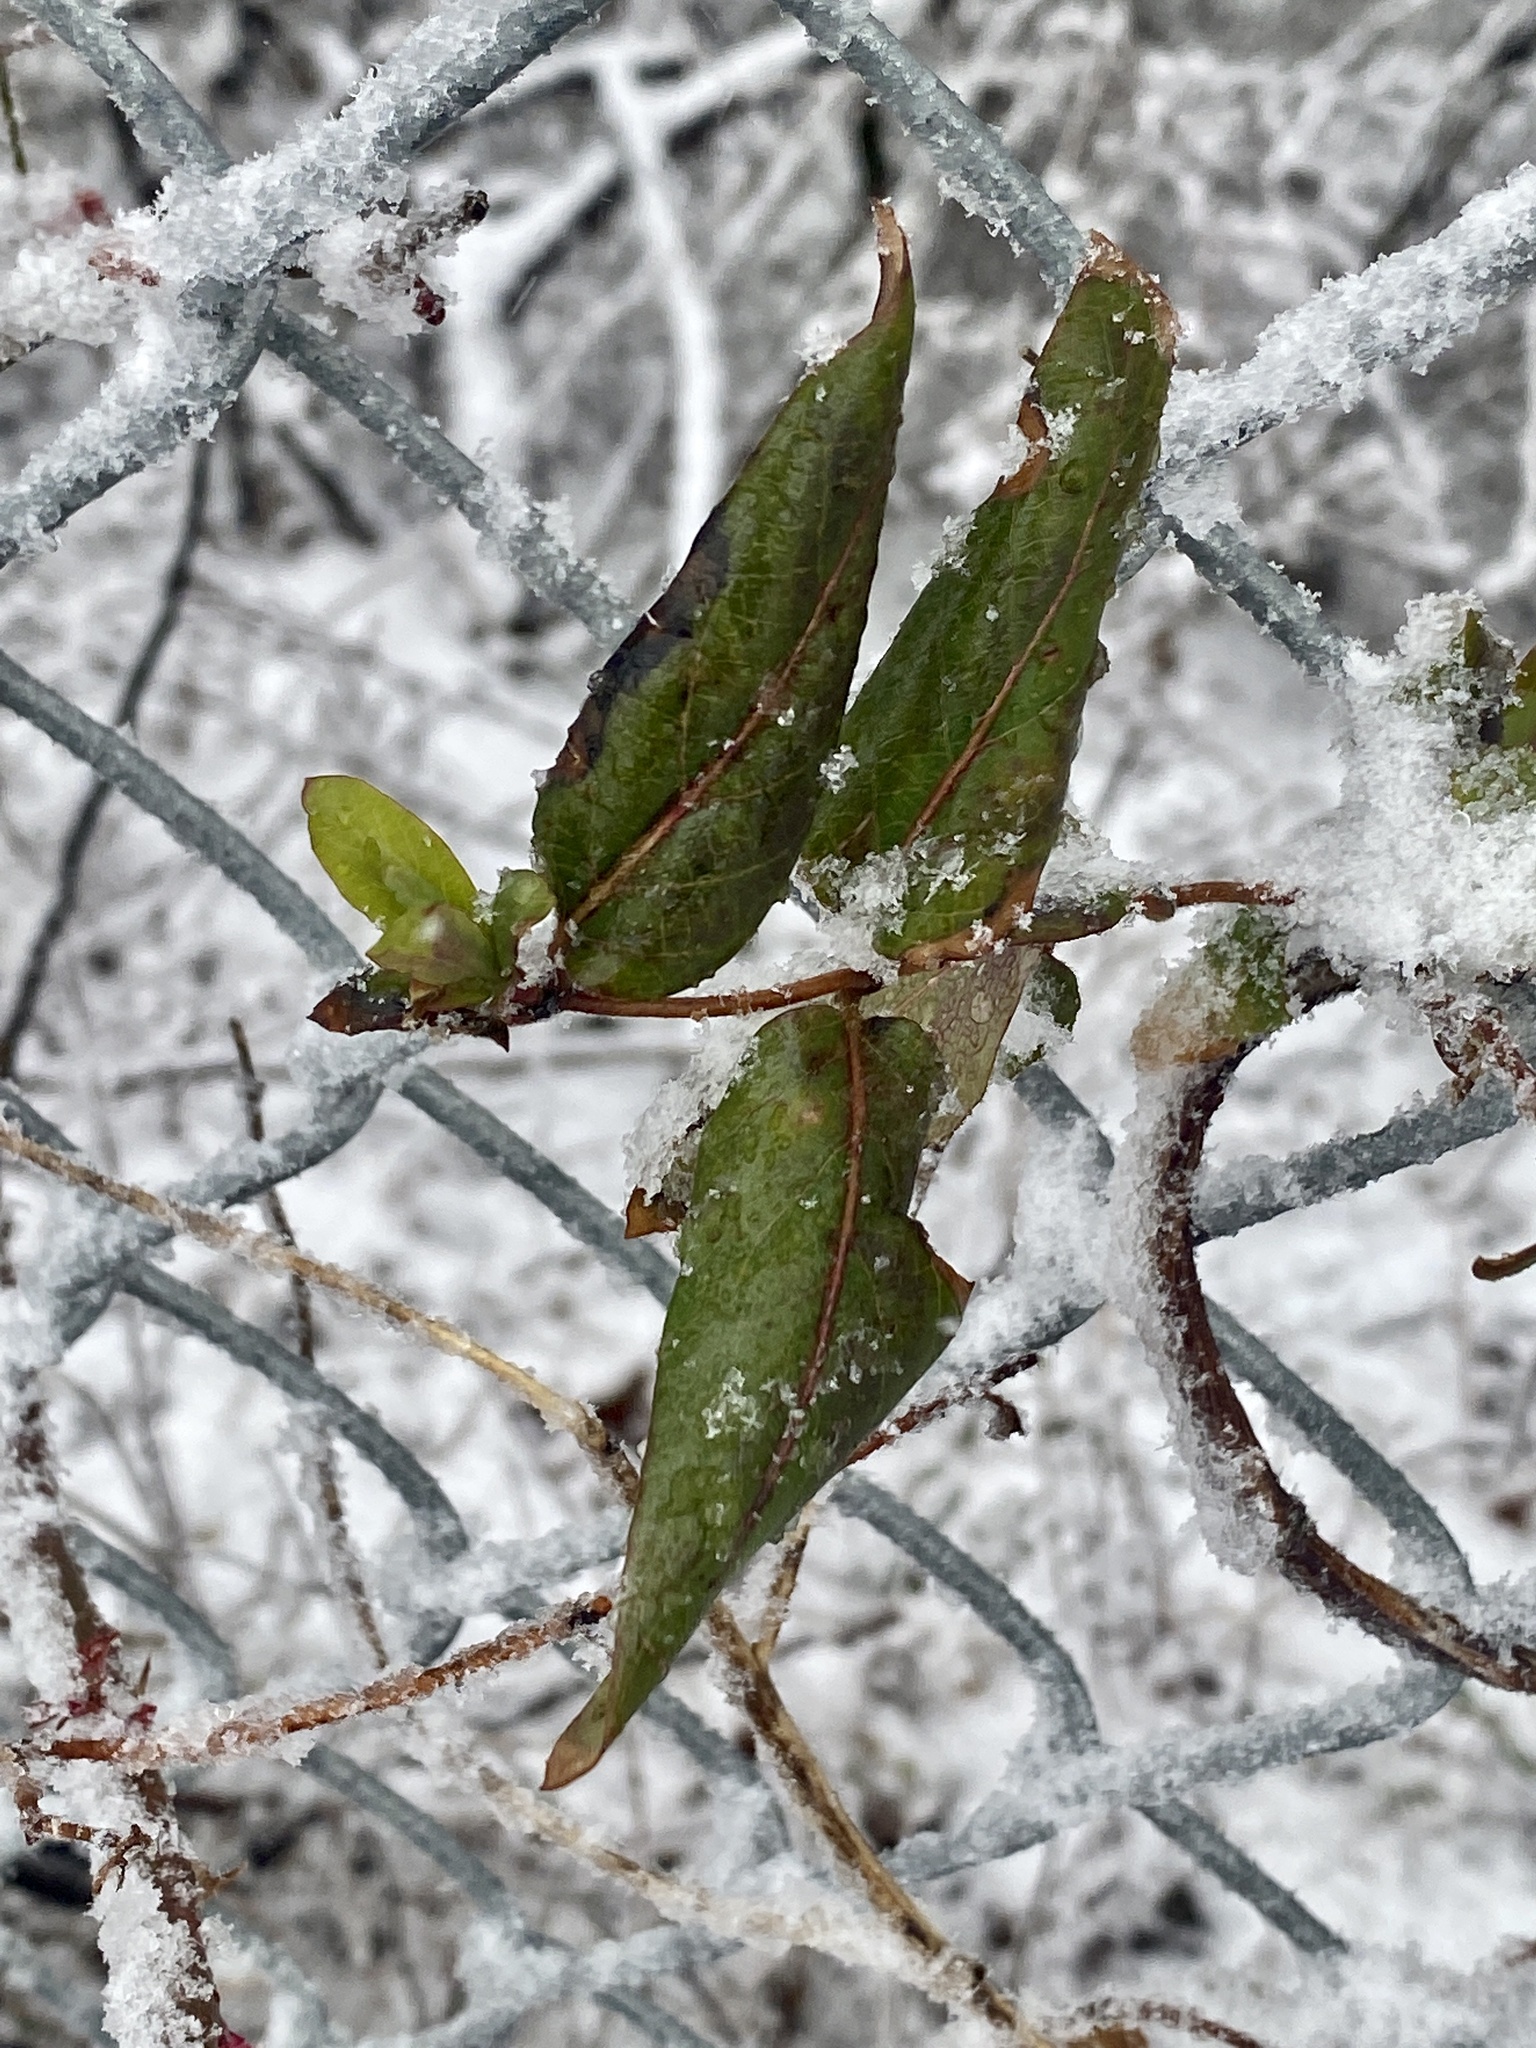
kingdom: Plantae
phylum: Tracheophyta
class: Magnoliopsida
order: Dipsacales
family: Caprifoliaceae
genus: Lonicera
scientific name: Lonicera japonica
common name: Japanese honeysuckle
